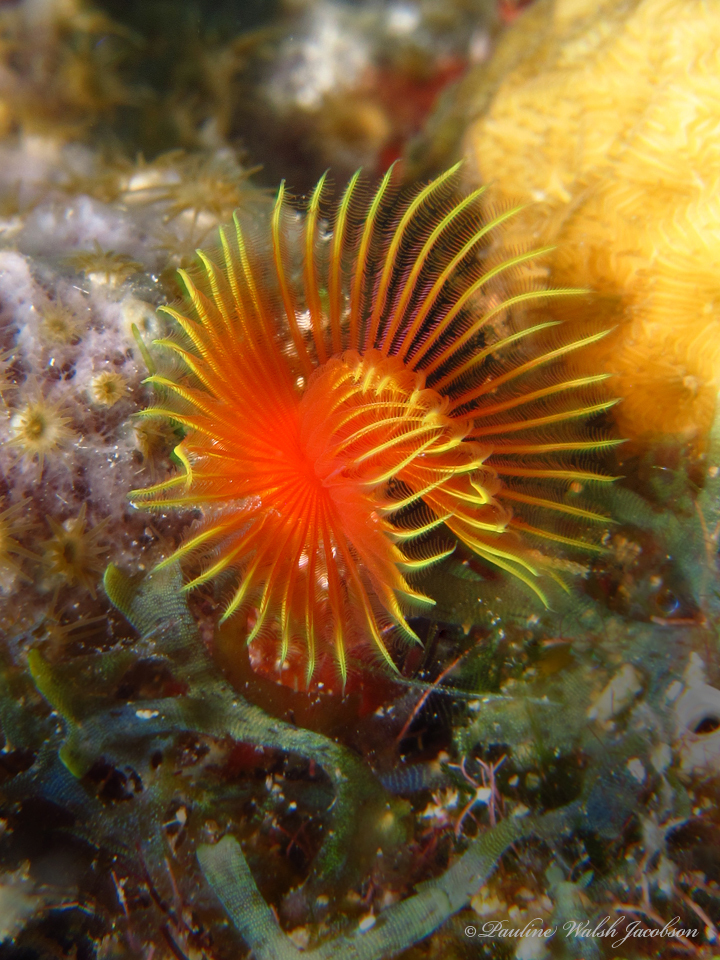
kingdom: Animalia
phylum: Annelida
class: Polychaeta
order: Sabellida
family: Serpulidae
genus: Pomatostegus
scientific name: Pomatostegus stellatus
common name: Star tubeworm
